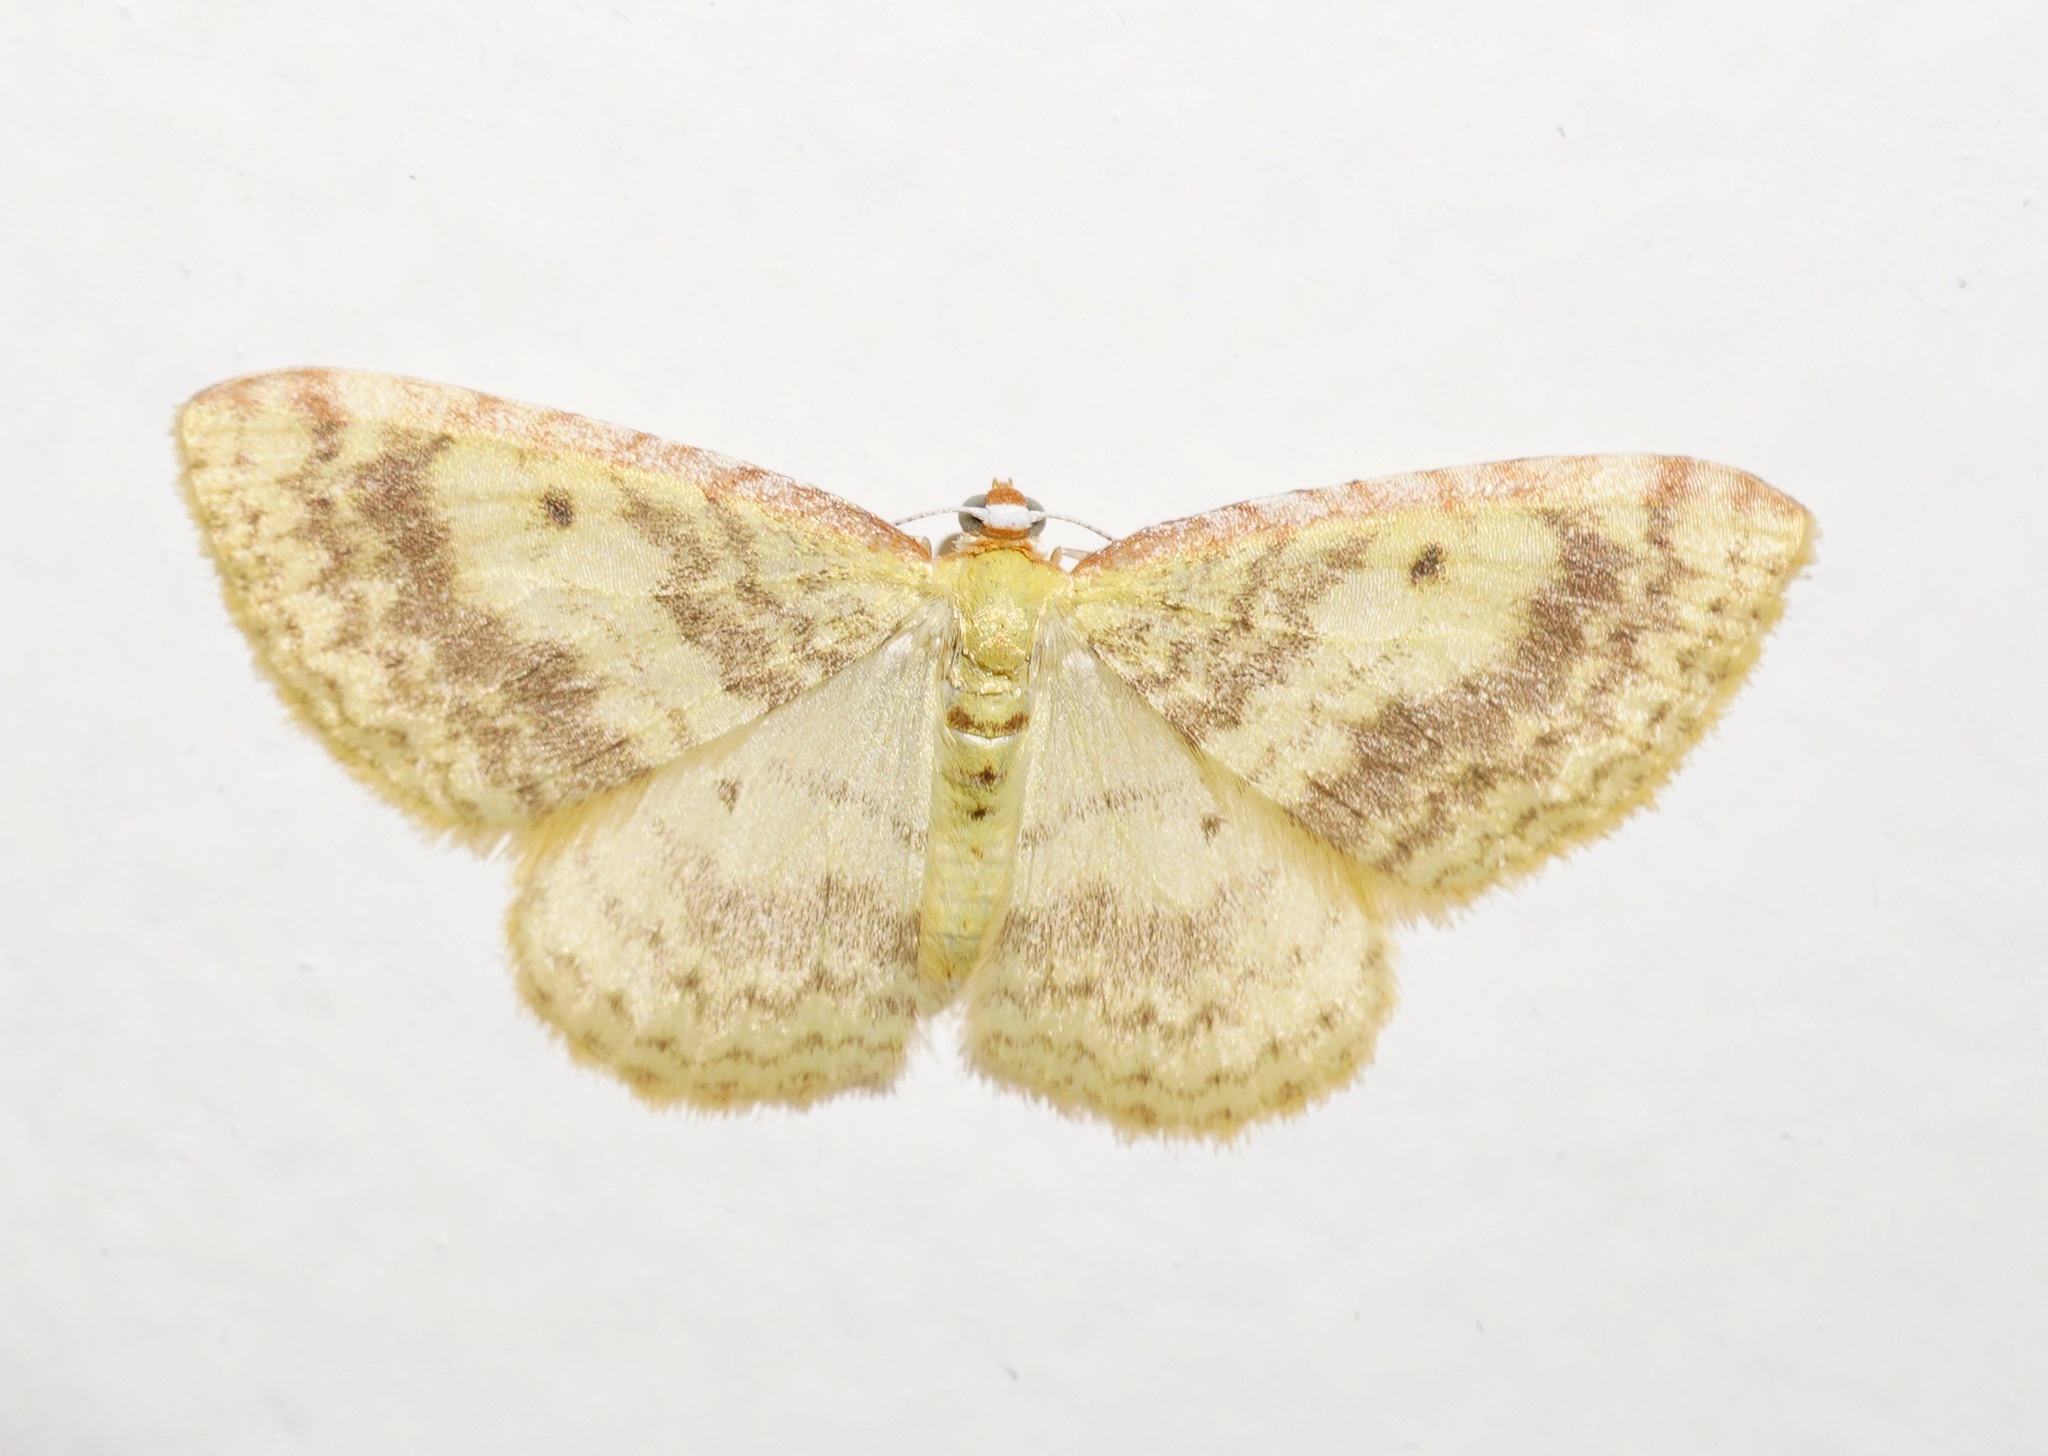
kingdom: Animalia
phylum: Arthropoda
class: Insecta
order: Lepidoptera
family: Geometridae
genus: Epiphryne
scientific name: Epiphryne undosata
